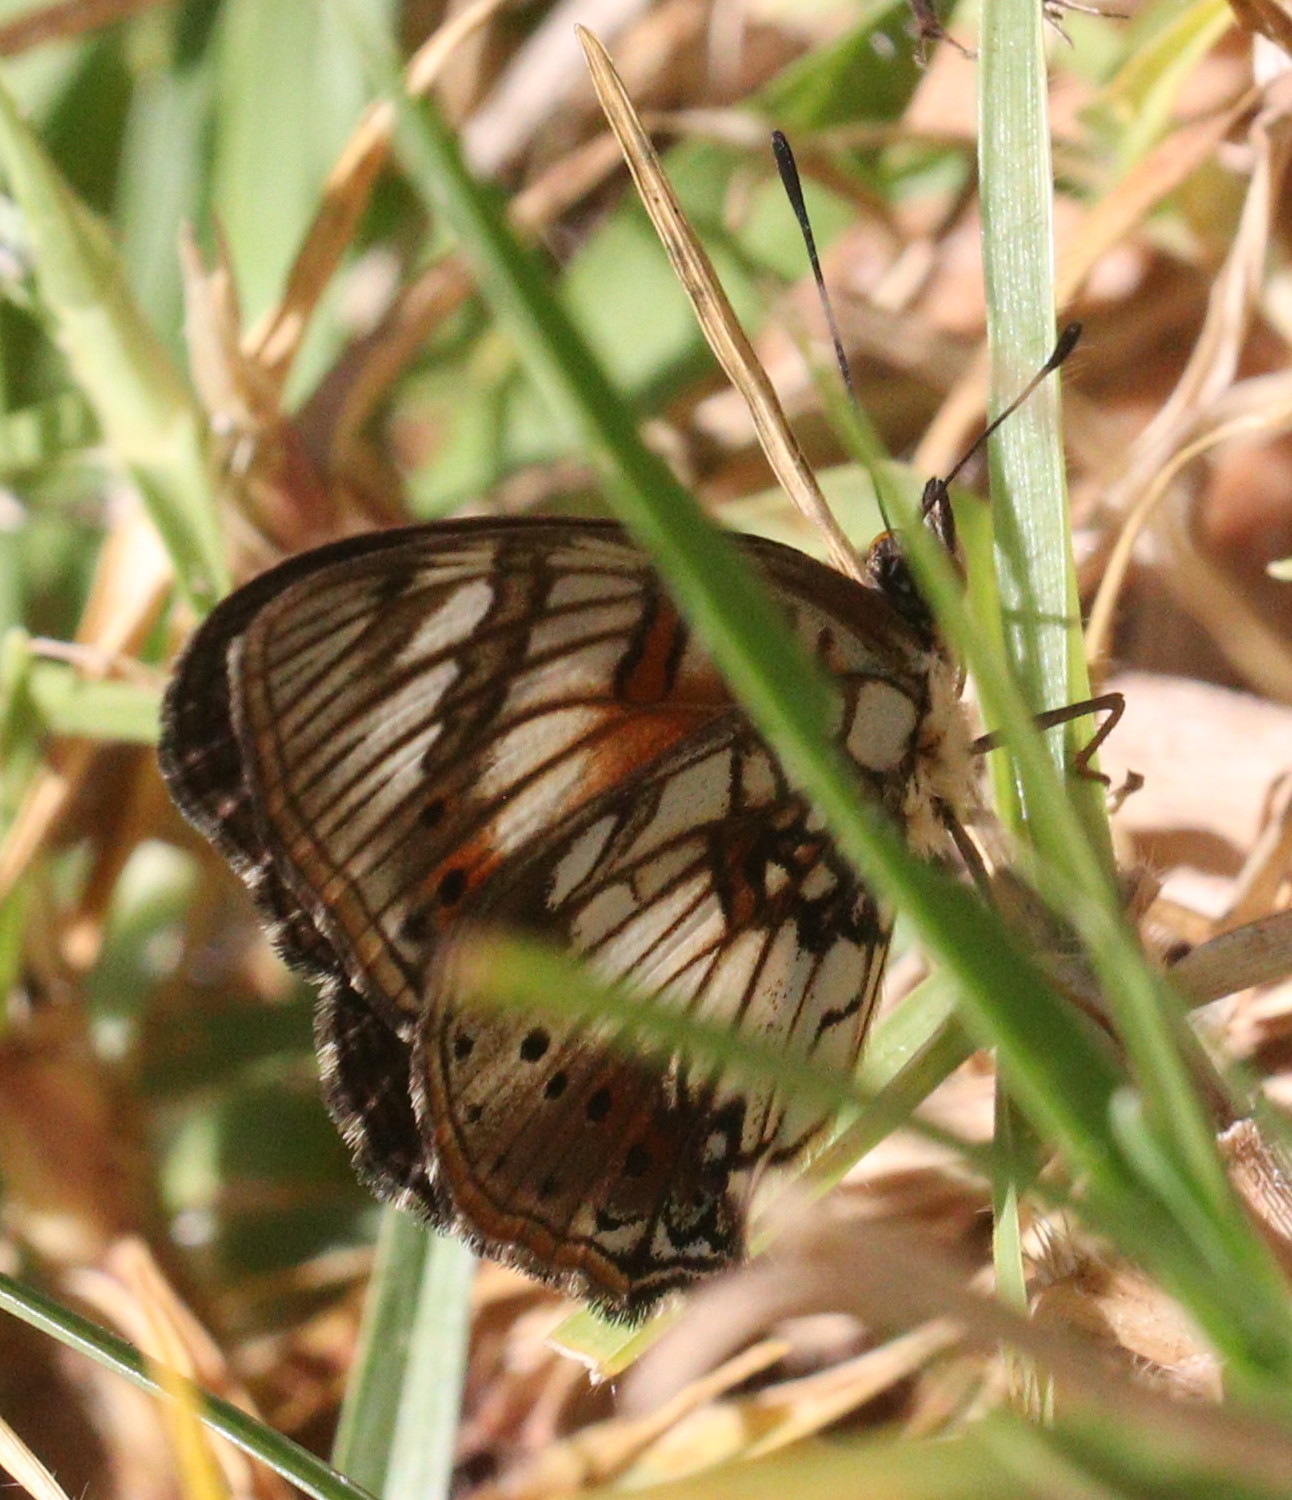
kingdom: Animalia
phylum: Arthropoda
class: Insecta
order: Lepidoptera
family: Nymphalidae
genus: Junonia
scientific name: Junonia sophia
